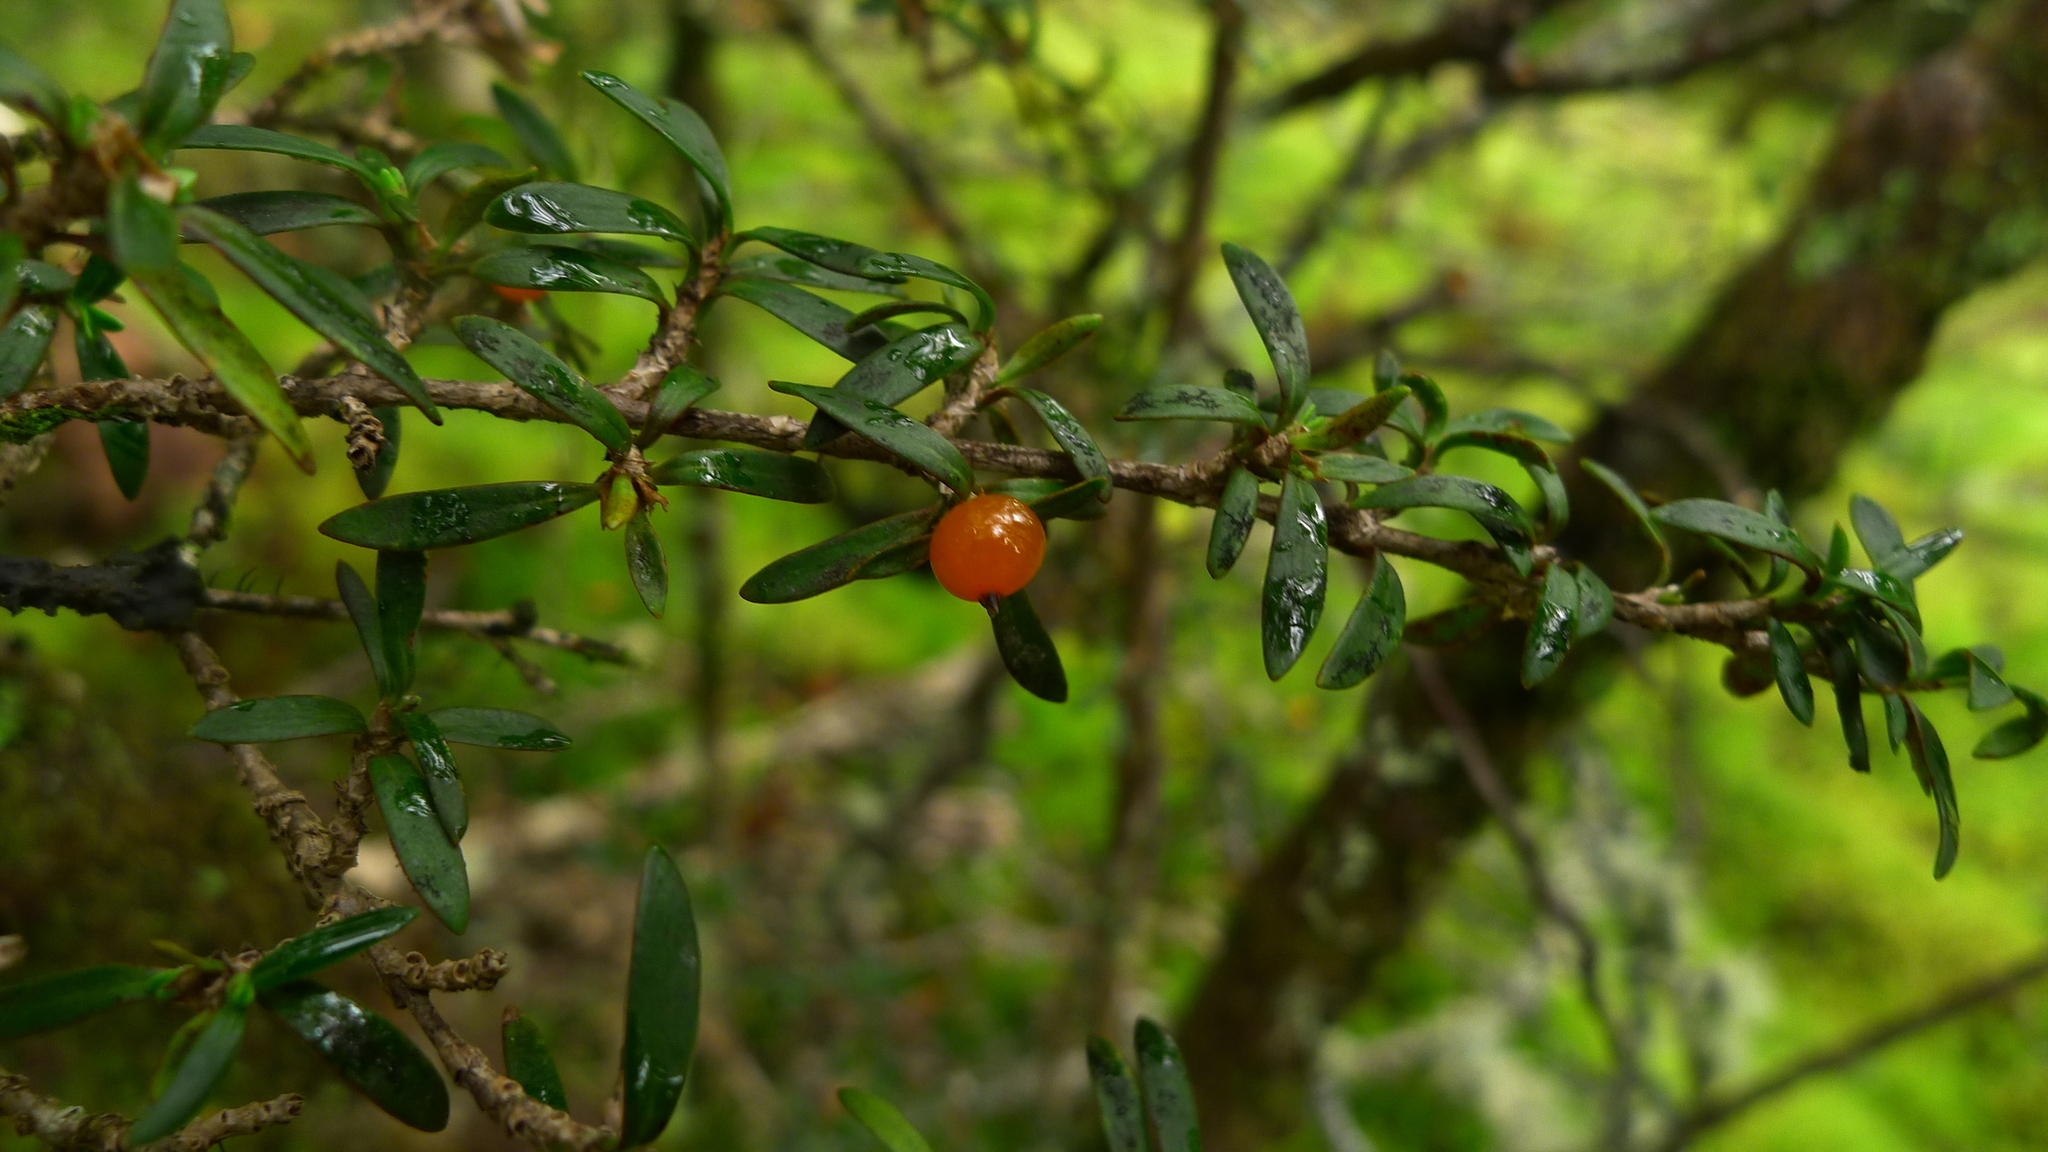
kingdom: Plantae
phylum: Tracheophyta
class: Magnoliopsida
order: Gentianales
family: Rubiaceae
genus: Coprosma
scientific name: Coprosma pseudocuneata
